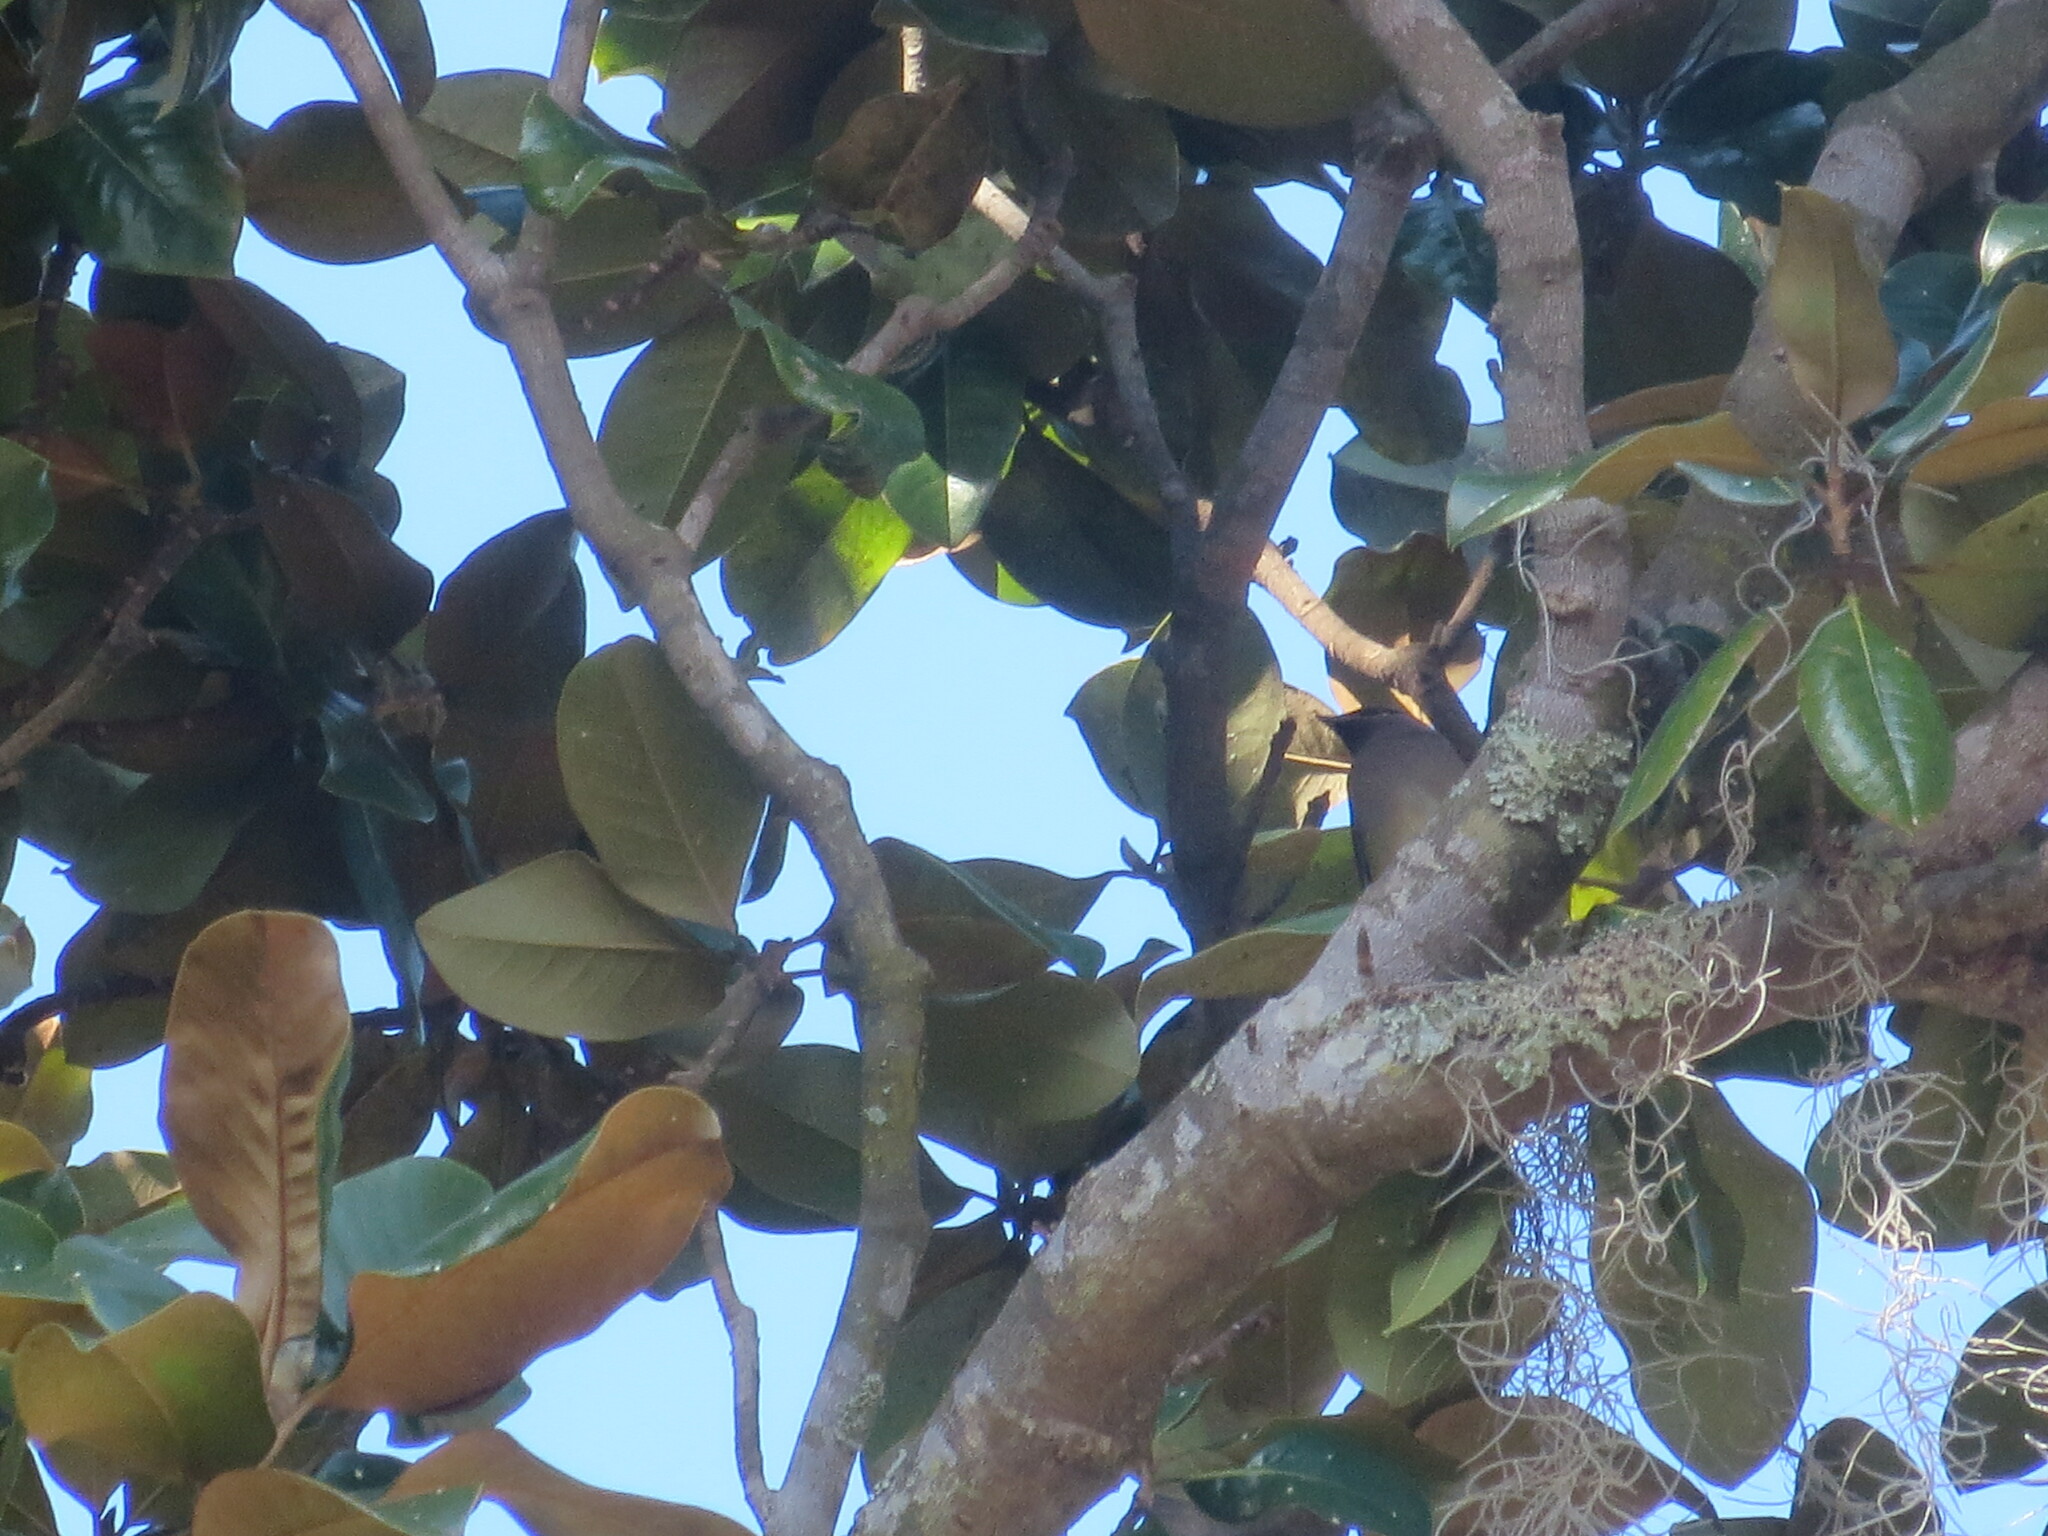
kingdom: Animalia
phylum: Chordata
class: Aves
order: Passeriformes
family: Bombycillidae
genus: Bombycilla
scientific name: Bombycilla cedrorum
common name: Cedar waxwing
